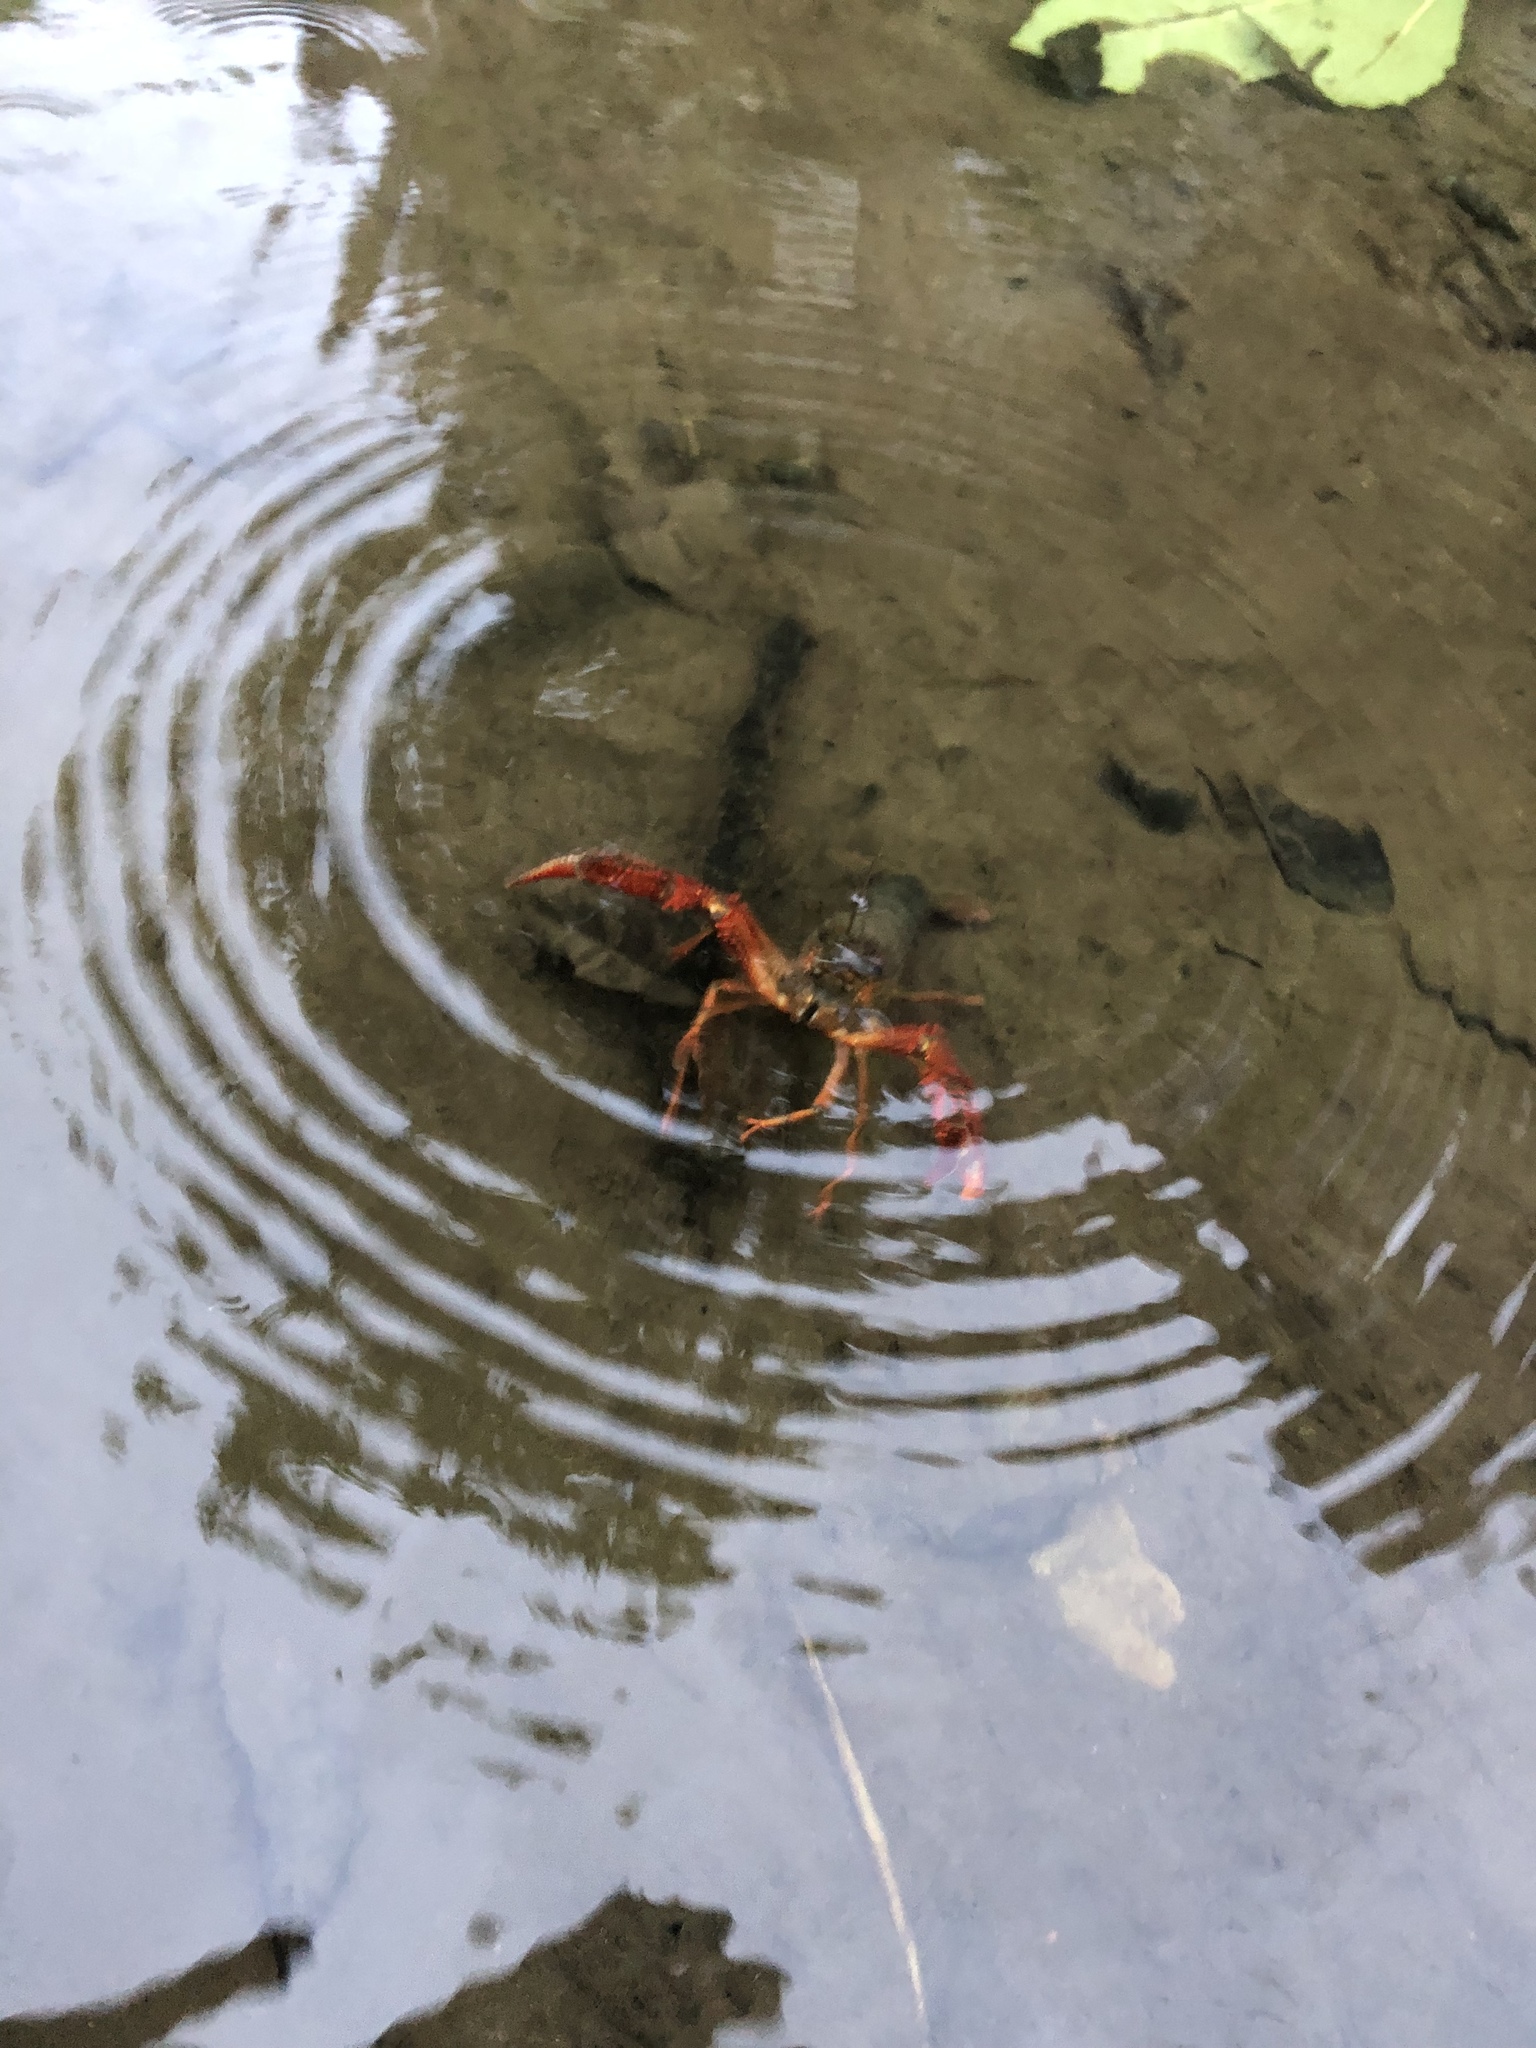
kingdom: Animalia
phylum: Arthropoda
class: Malacostraca
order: Decapoda
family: Cambaridae
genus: Procambarus
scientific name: Procambarus clarkii
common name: Red swamp crayfish
